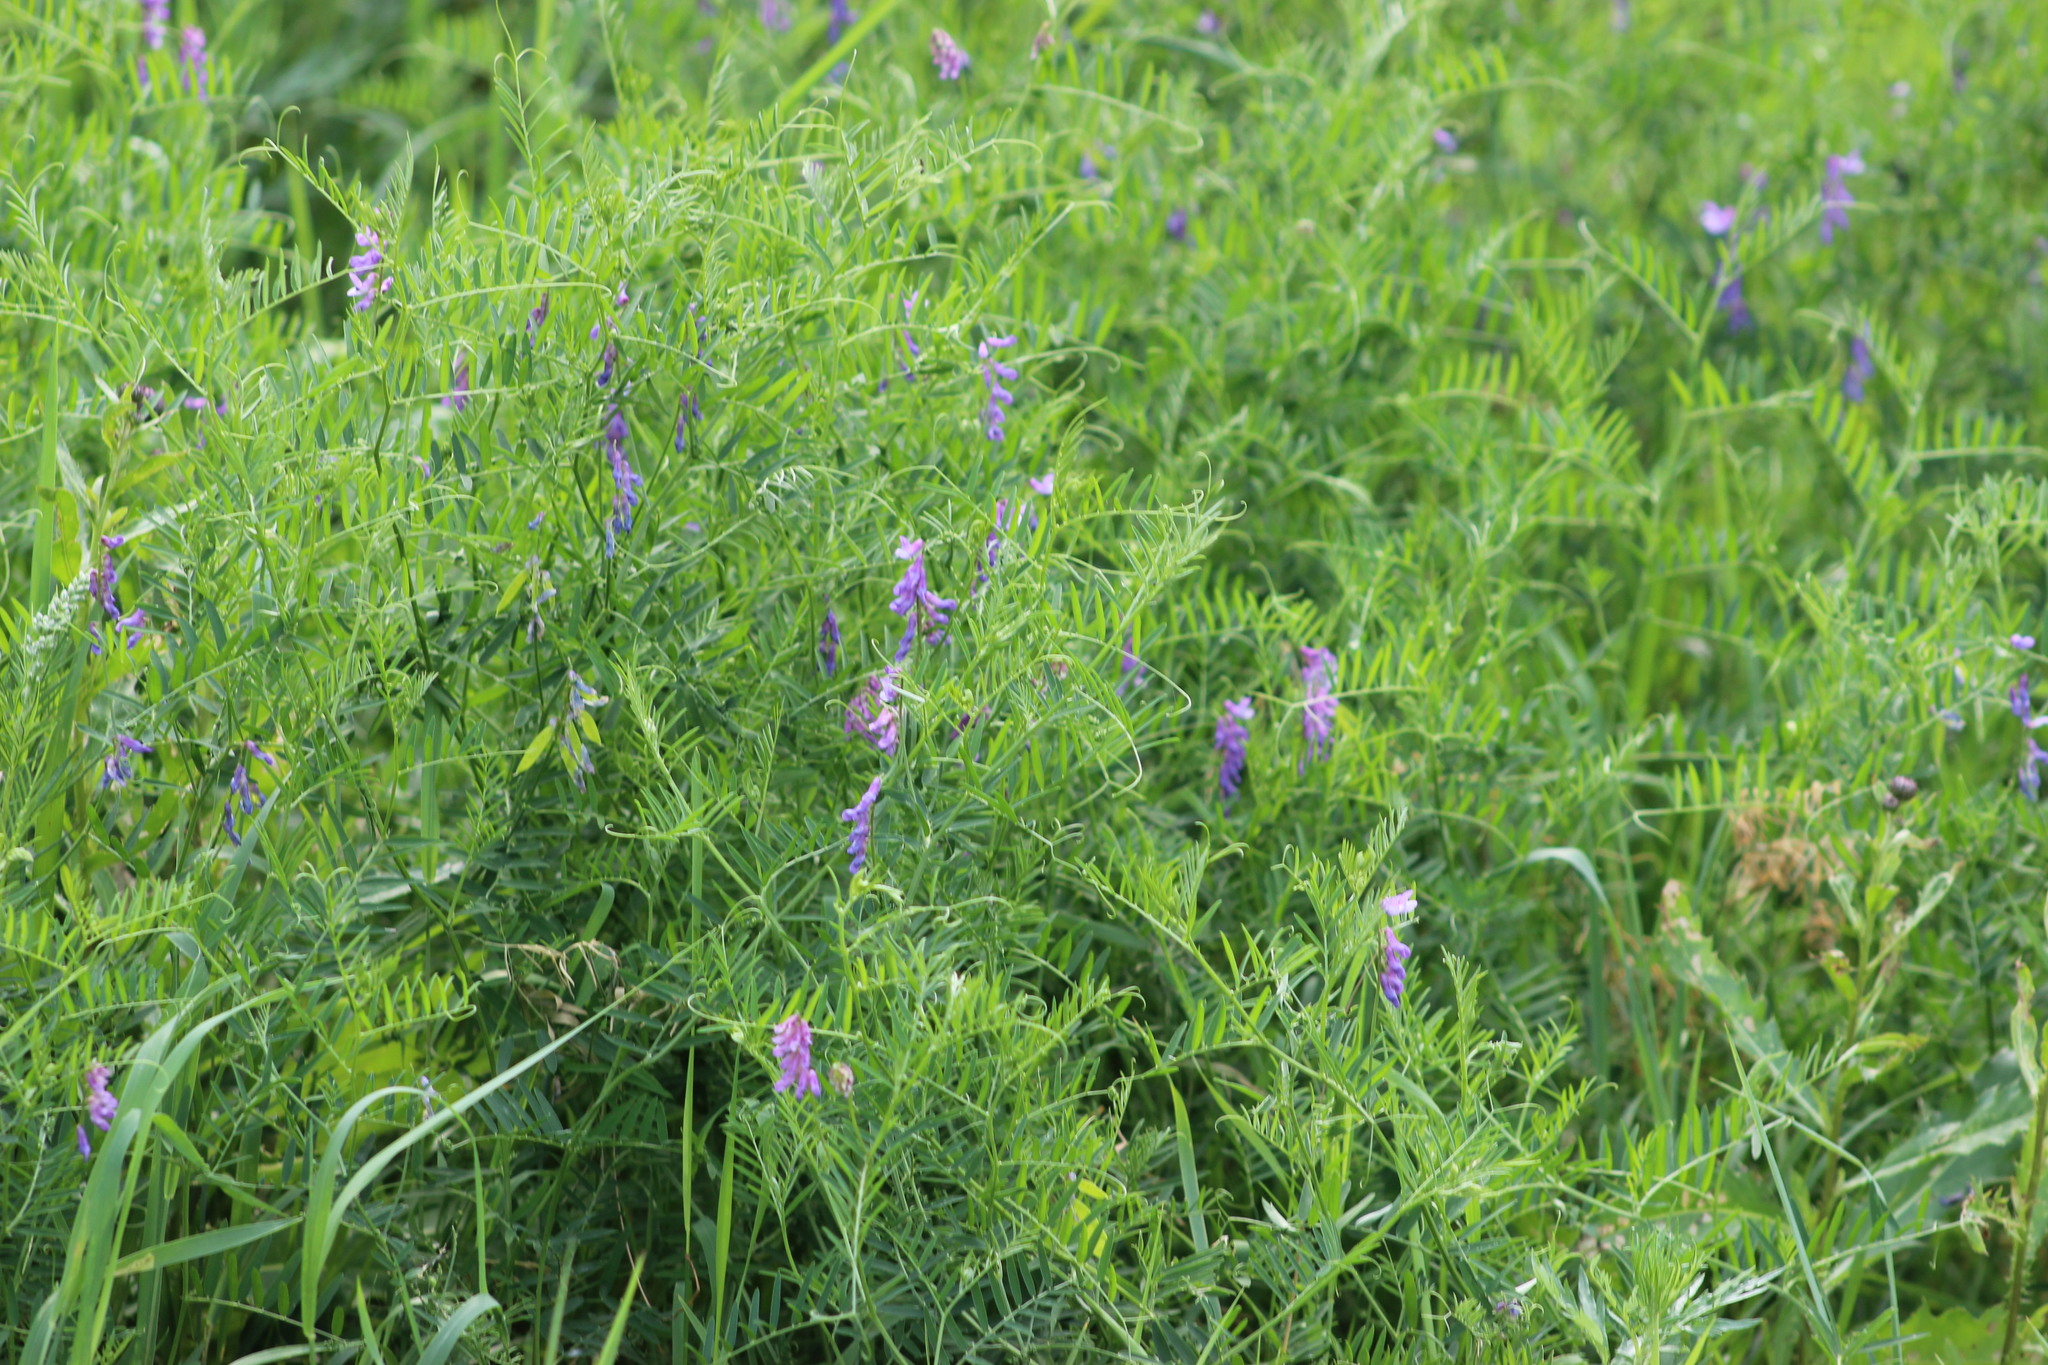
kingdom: Plantae
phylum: Tracheophyta
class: Magnoliopsida
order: Fabales
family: Fabaceae
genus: Vicia
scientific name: Vicia cracca
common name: Bird vetch
